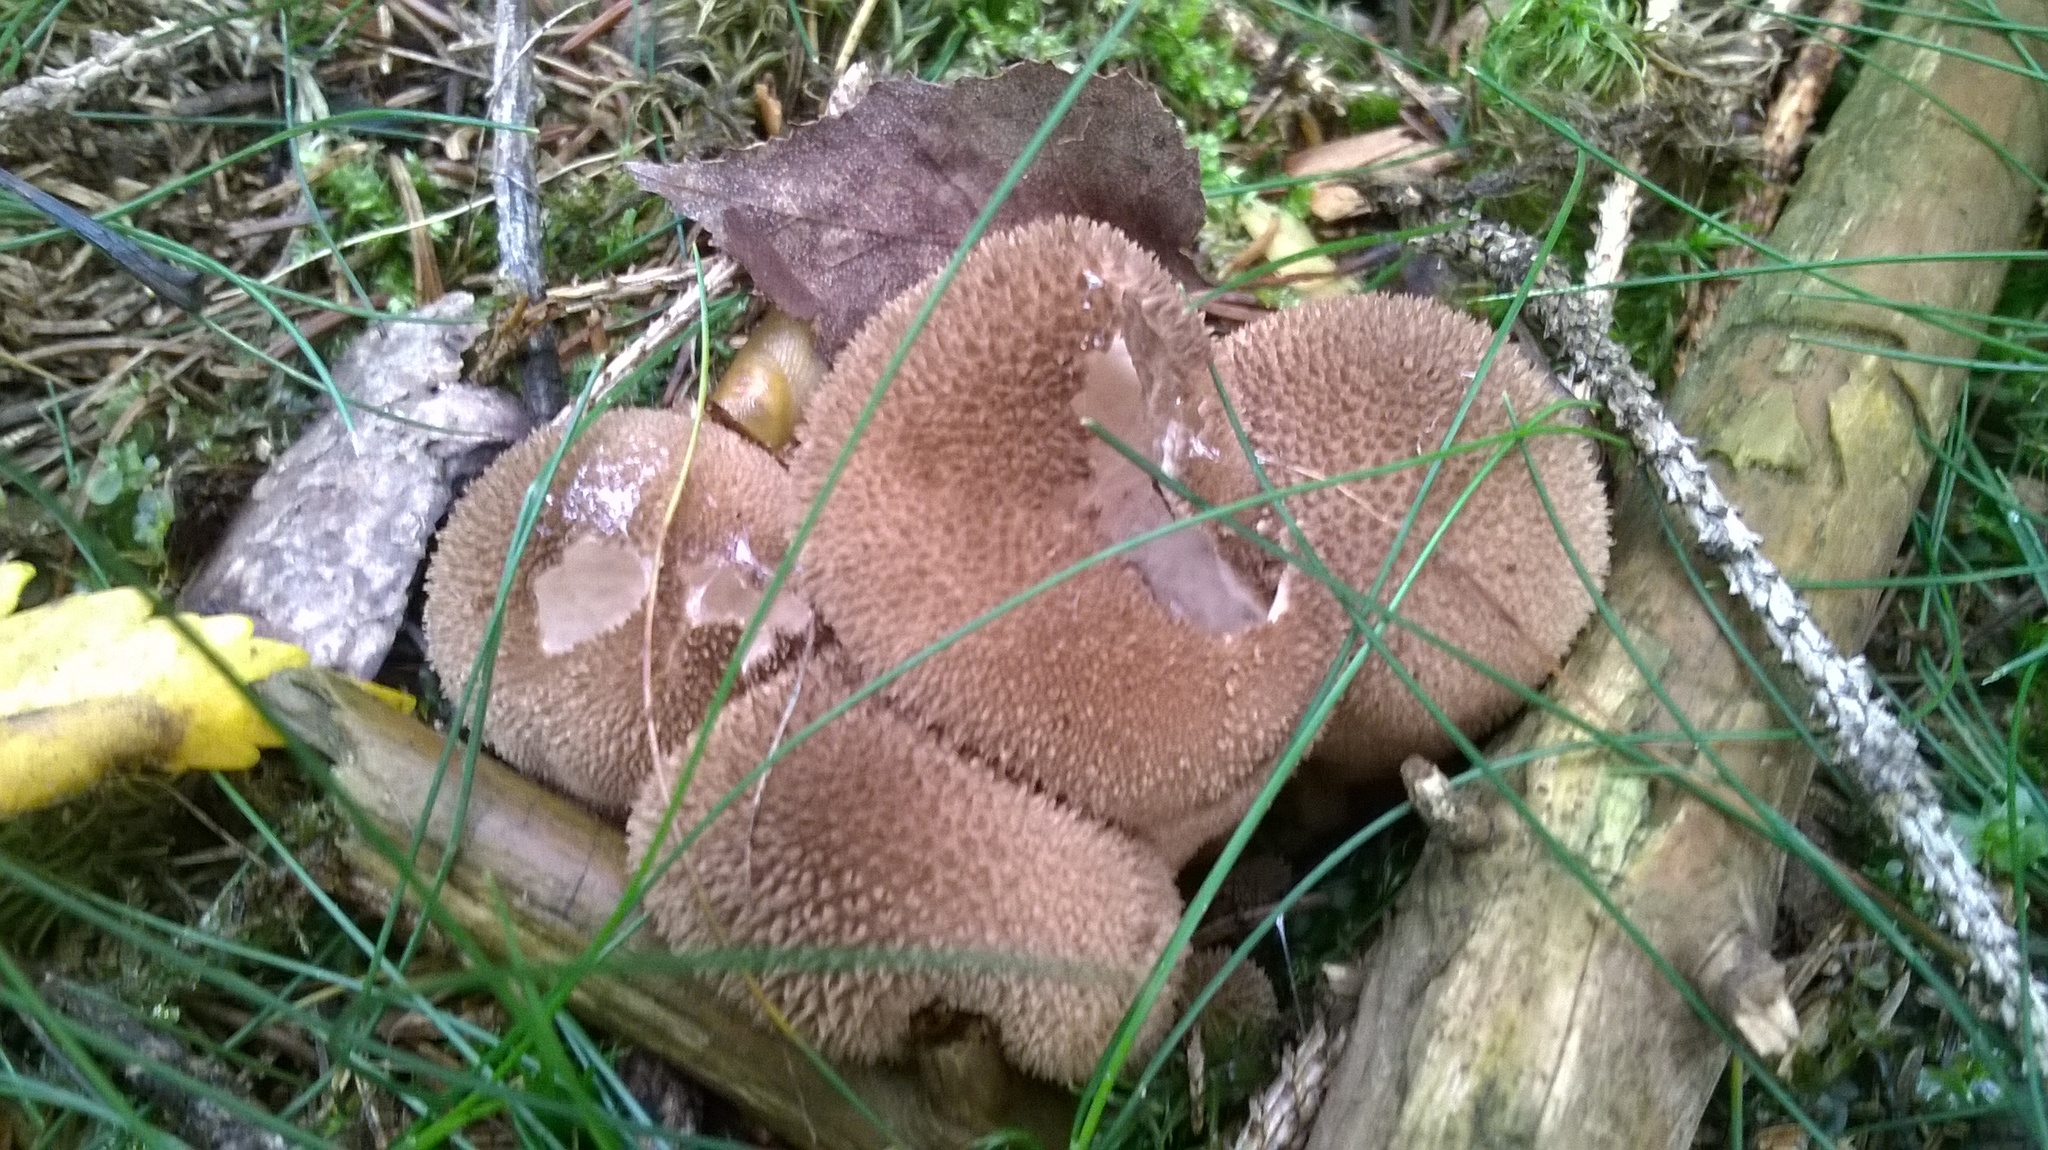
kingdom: Fungi
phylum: Basidiomycota
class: Agaricomycetes
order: Agaricales
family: Lycoperdaceae
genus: Lycoperdon
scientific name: Lycoperdon echinatum
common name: Hedgehog puffball
